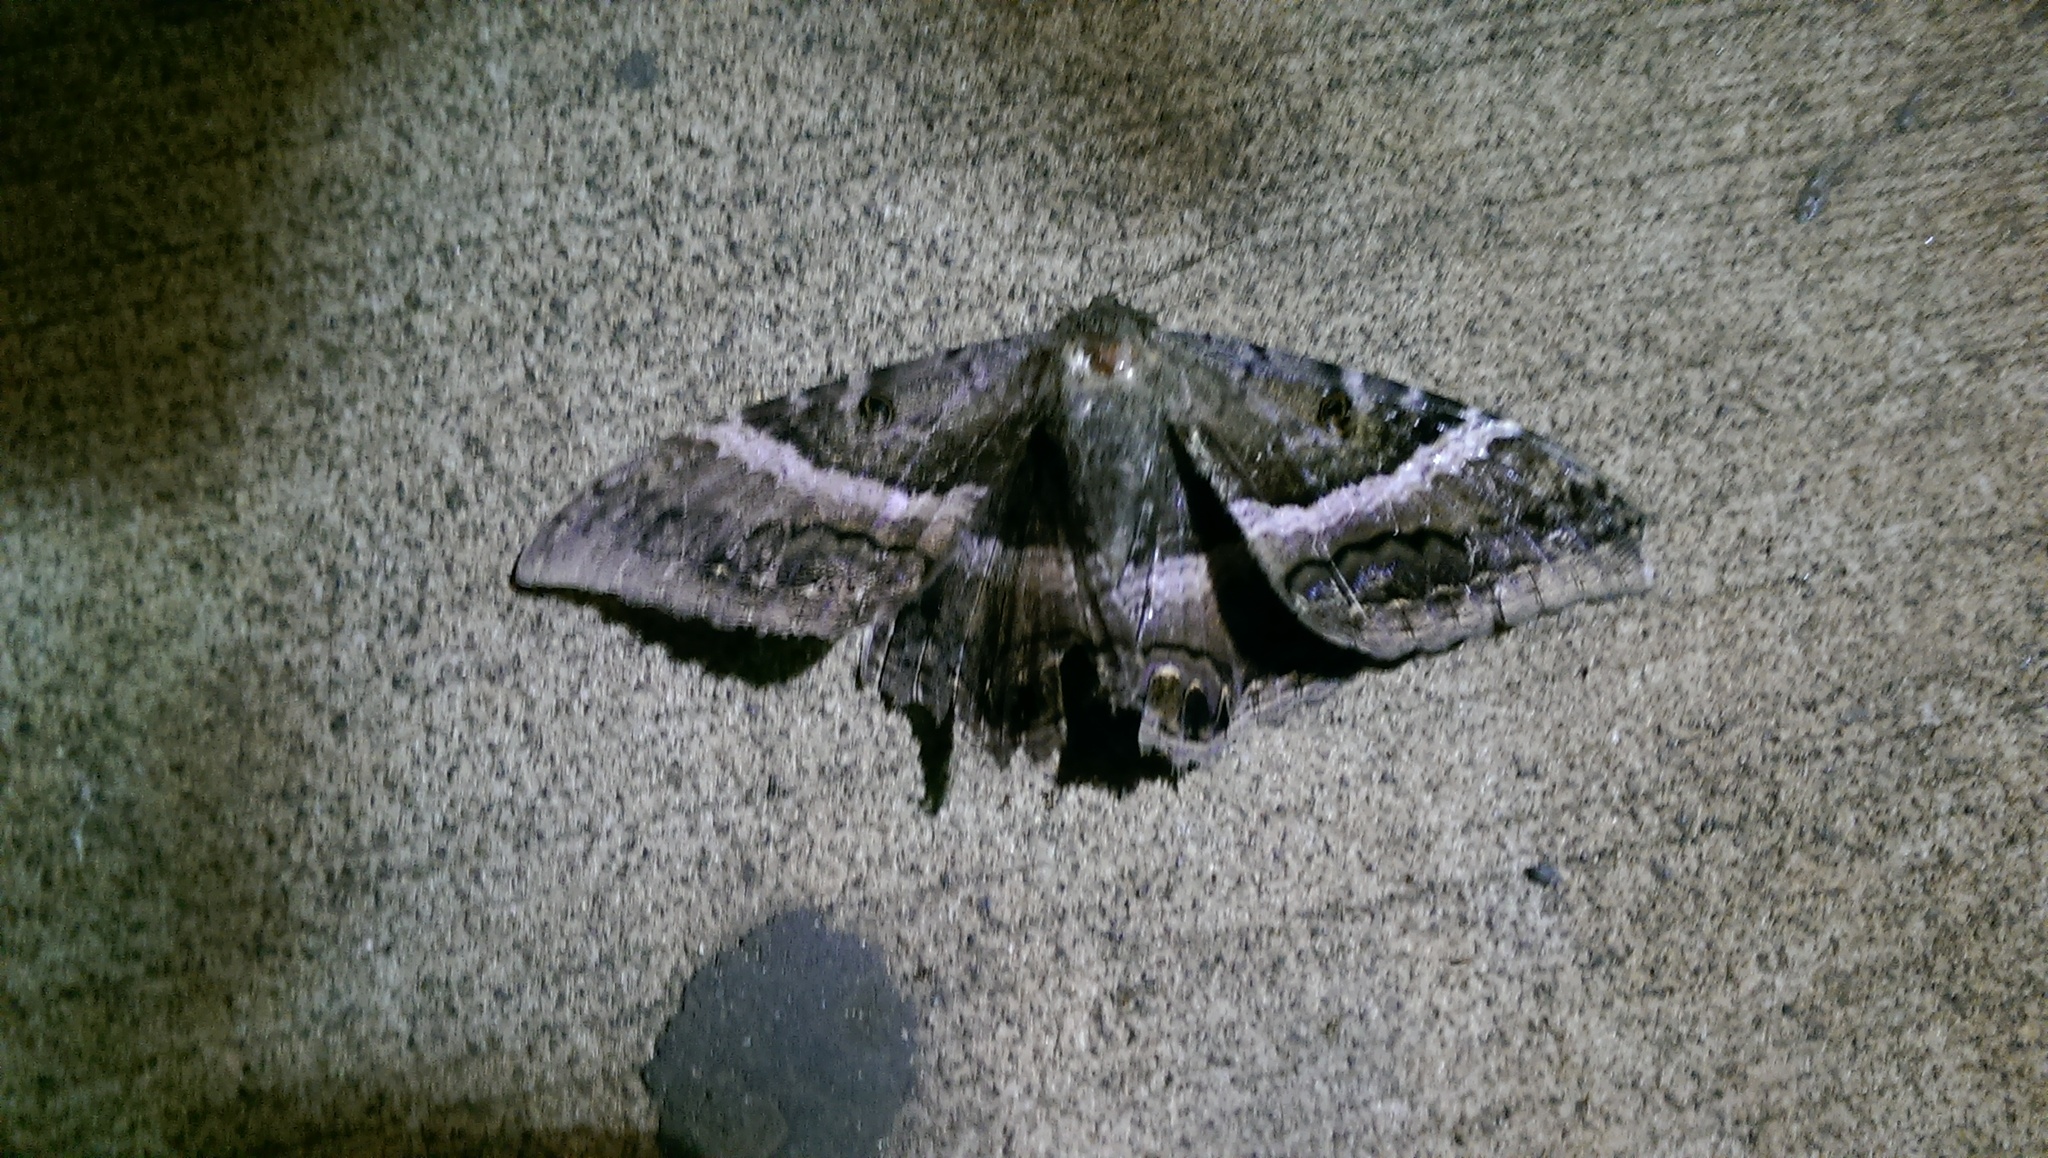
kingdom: Animalia
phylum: Arthropoda
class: Insecta
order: Lepidoptera
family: Erebidae
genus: Ascalapha
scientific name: Ascalapha odorata
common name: Black witch
